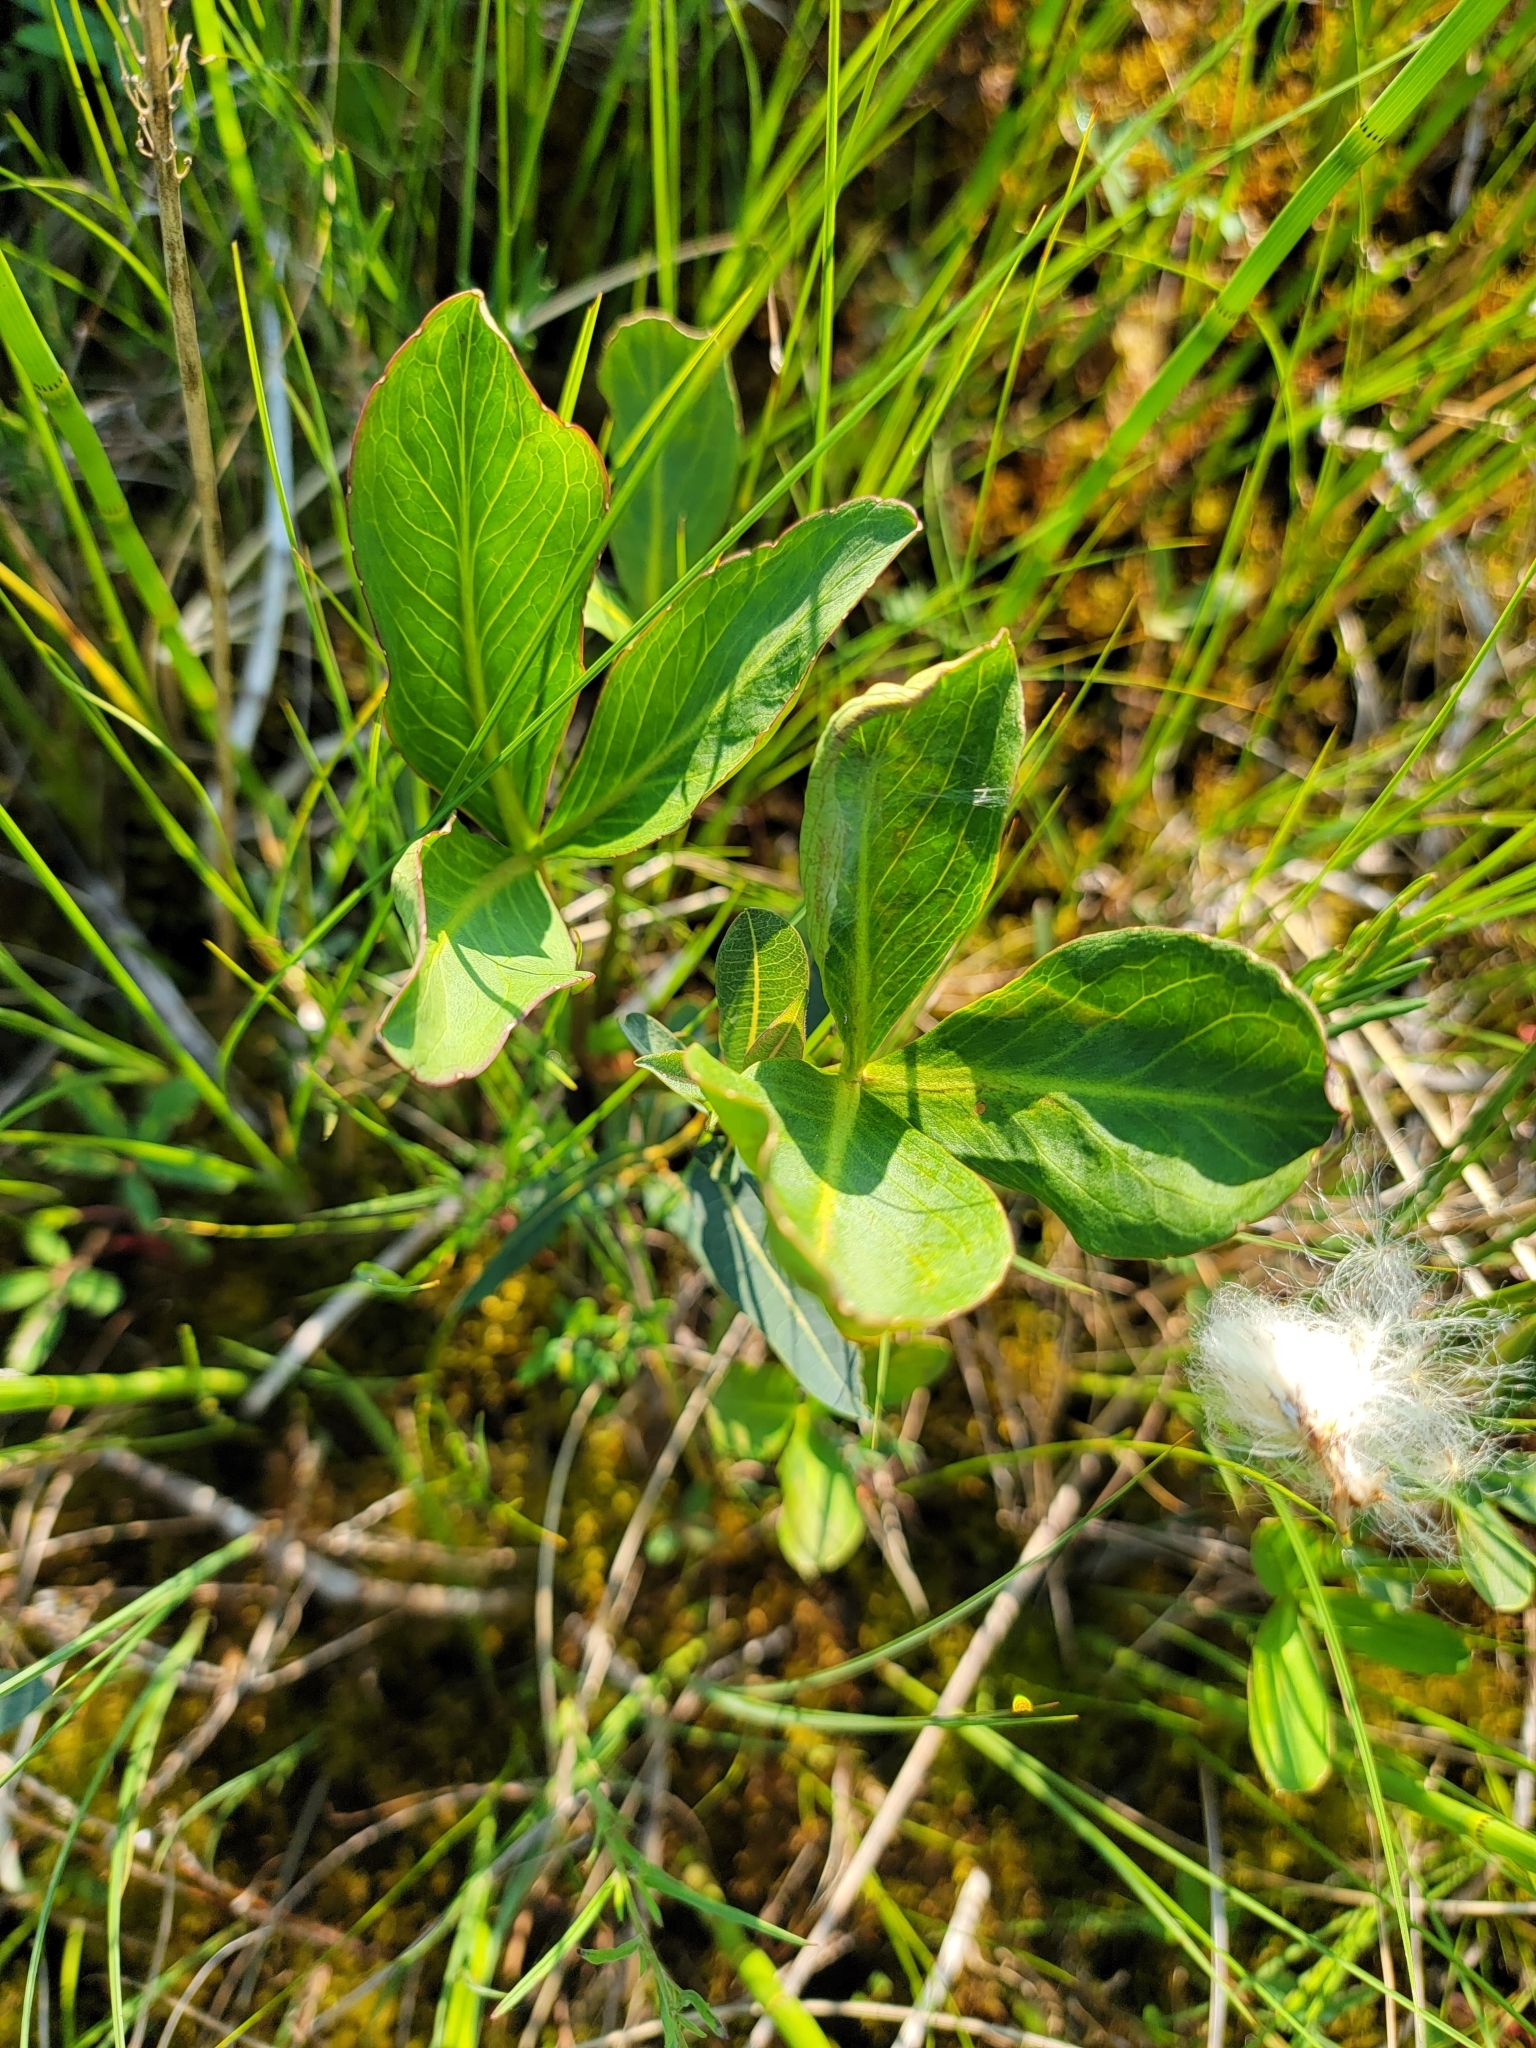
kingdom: Plantae
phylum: Tracheophyta
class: Magnoliopsida
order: Asterales
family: Menyanthaceae
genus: Menyanthes
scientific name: Menyanthes trifoliata
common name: Bogbean
